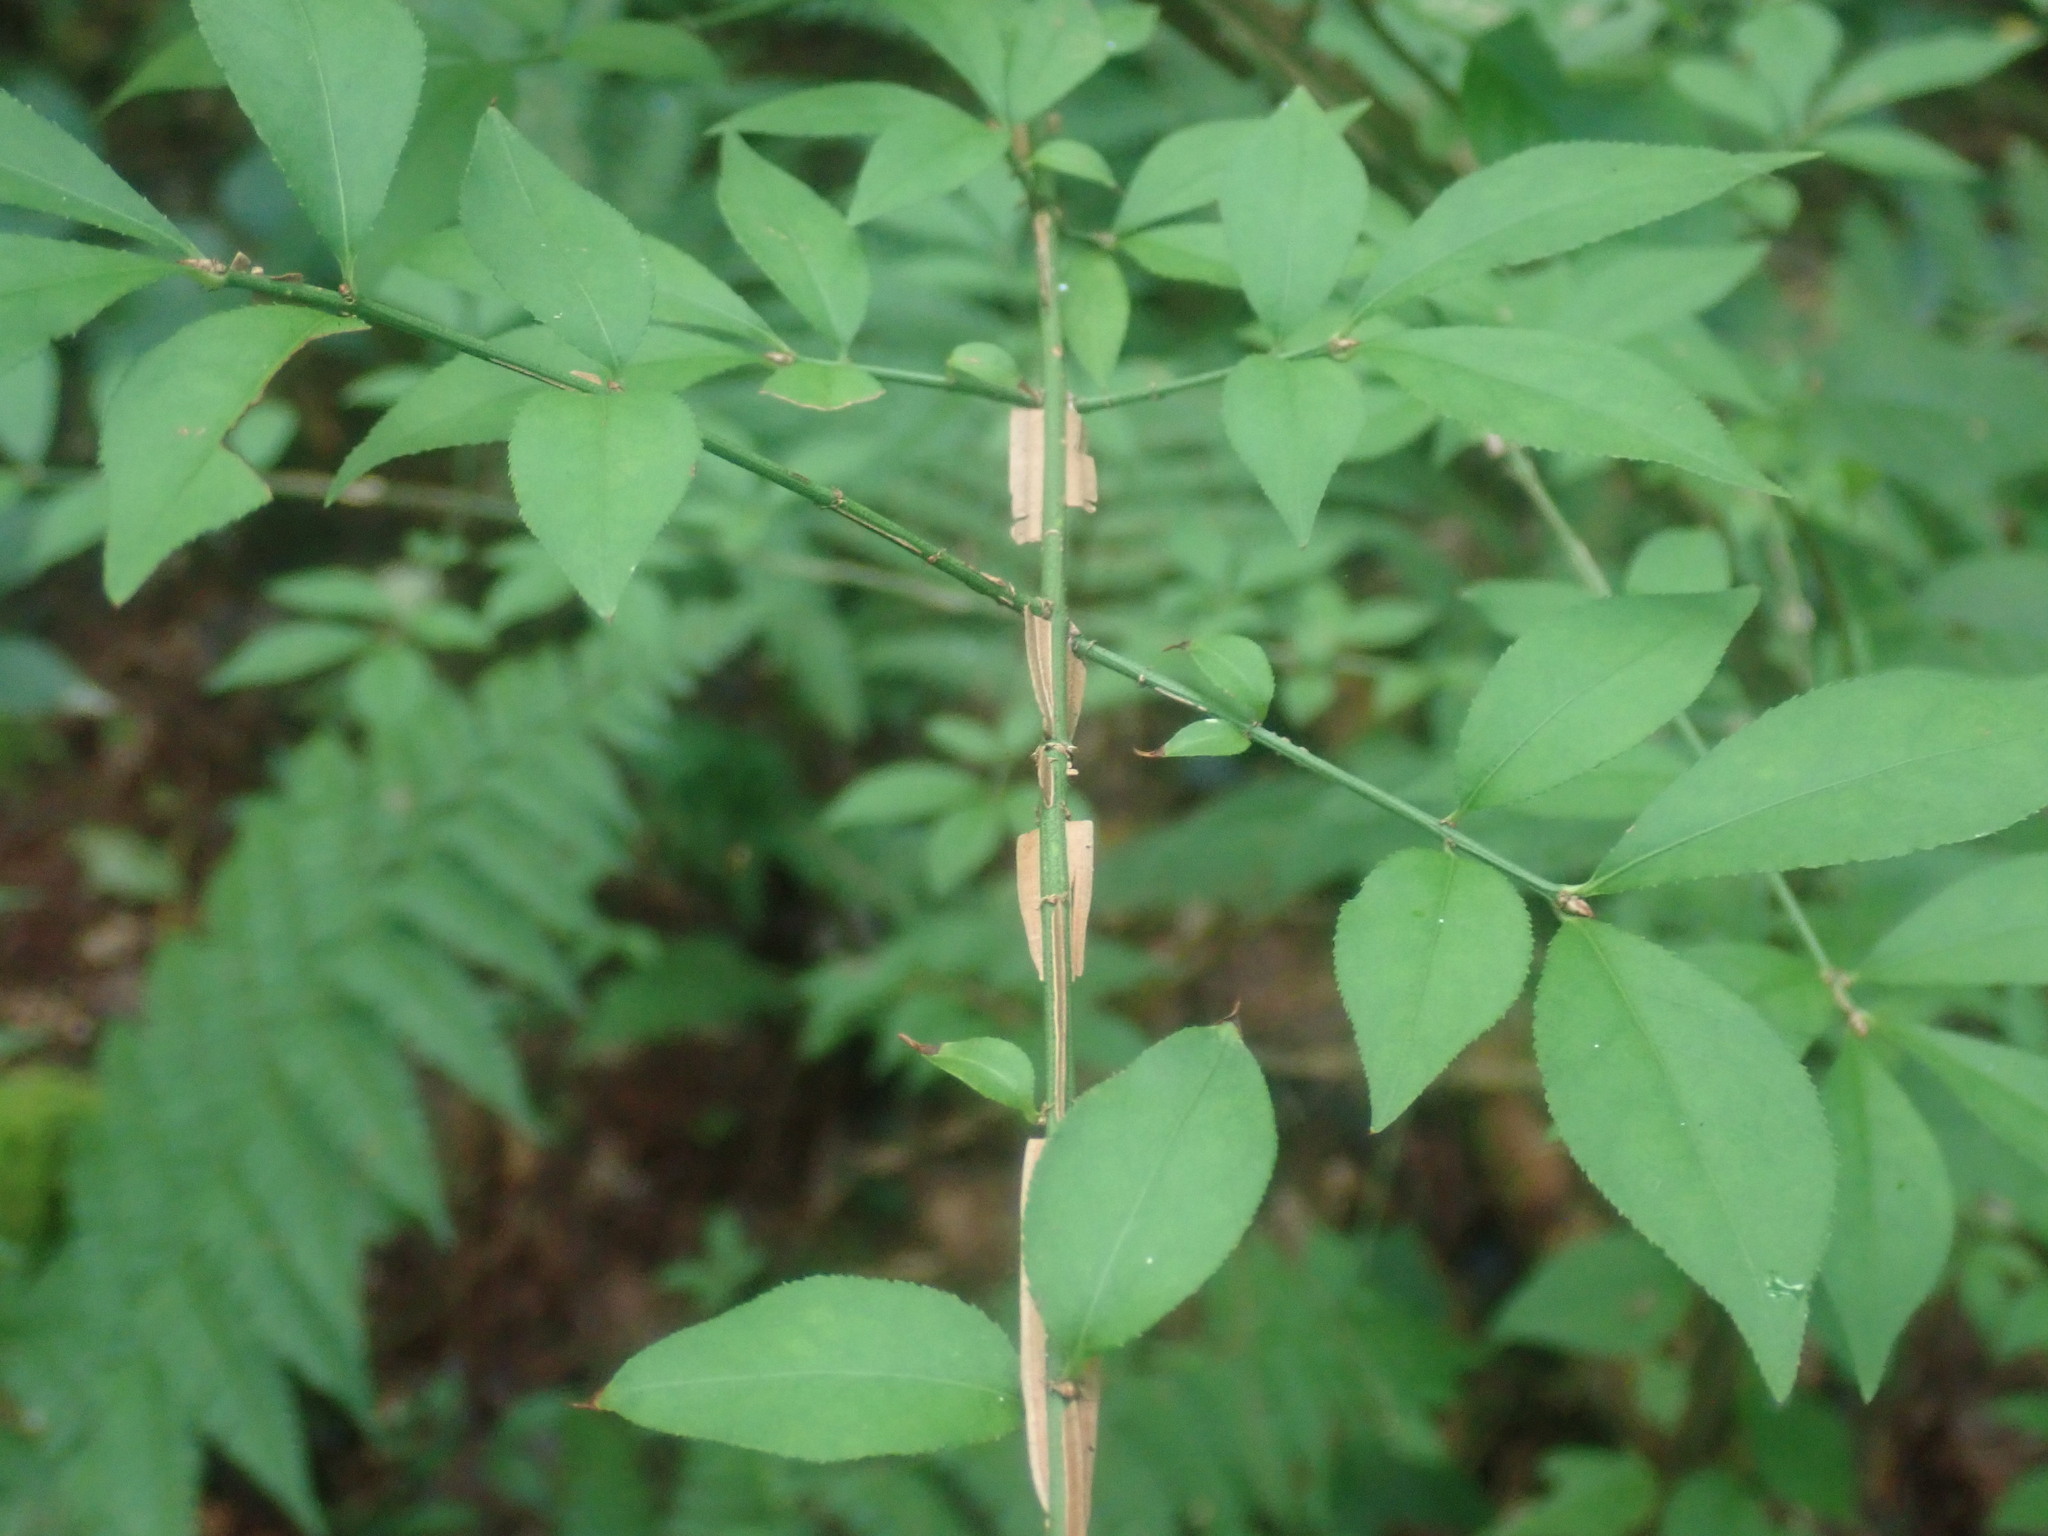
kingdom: Plantae
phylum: Tracheophyta
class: Magnoliopsida
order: Celastrales
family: Celastraceae
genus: Euonymus
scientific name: Euonymus alatus
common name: Winged euonymus
